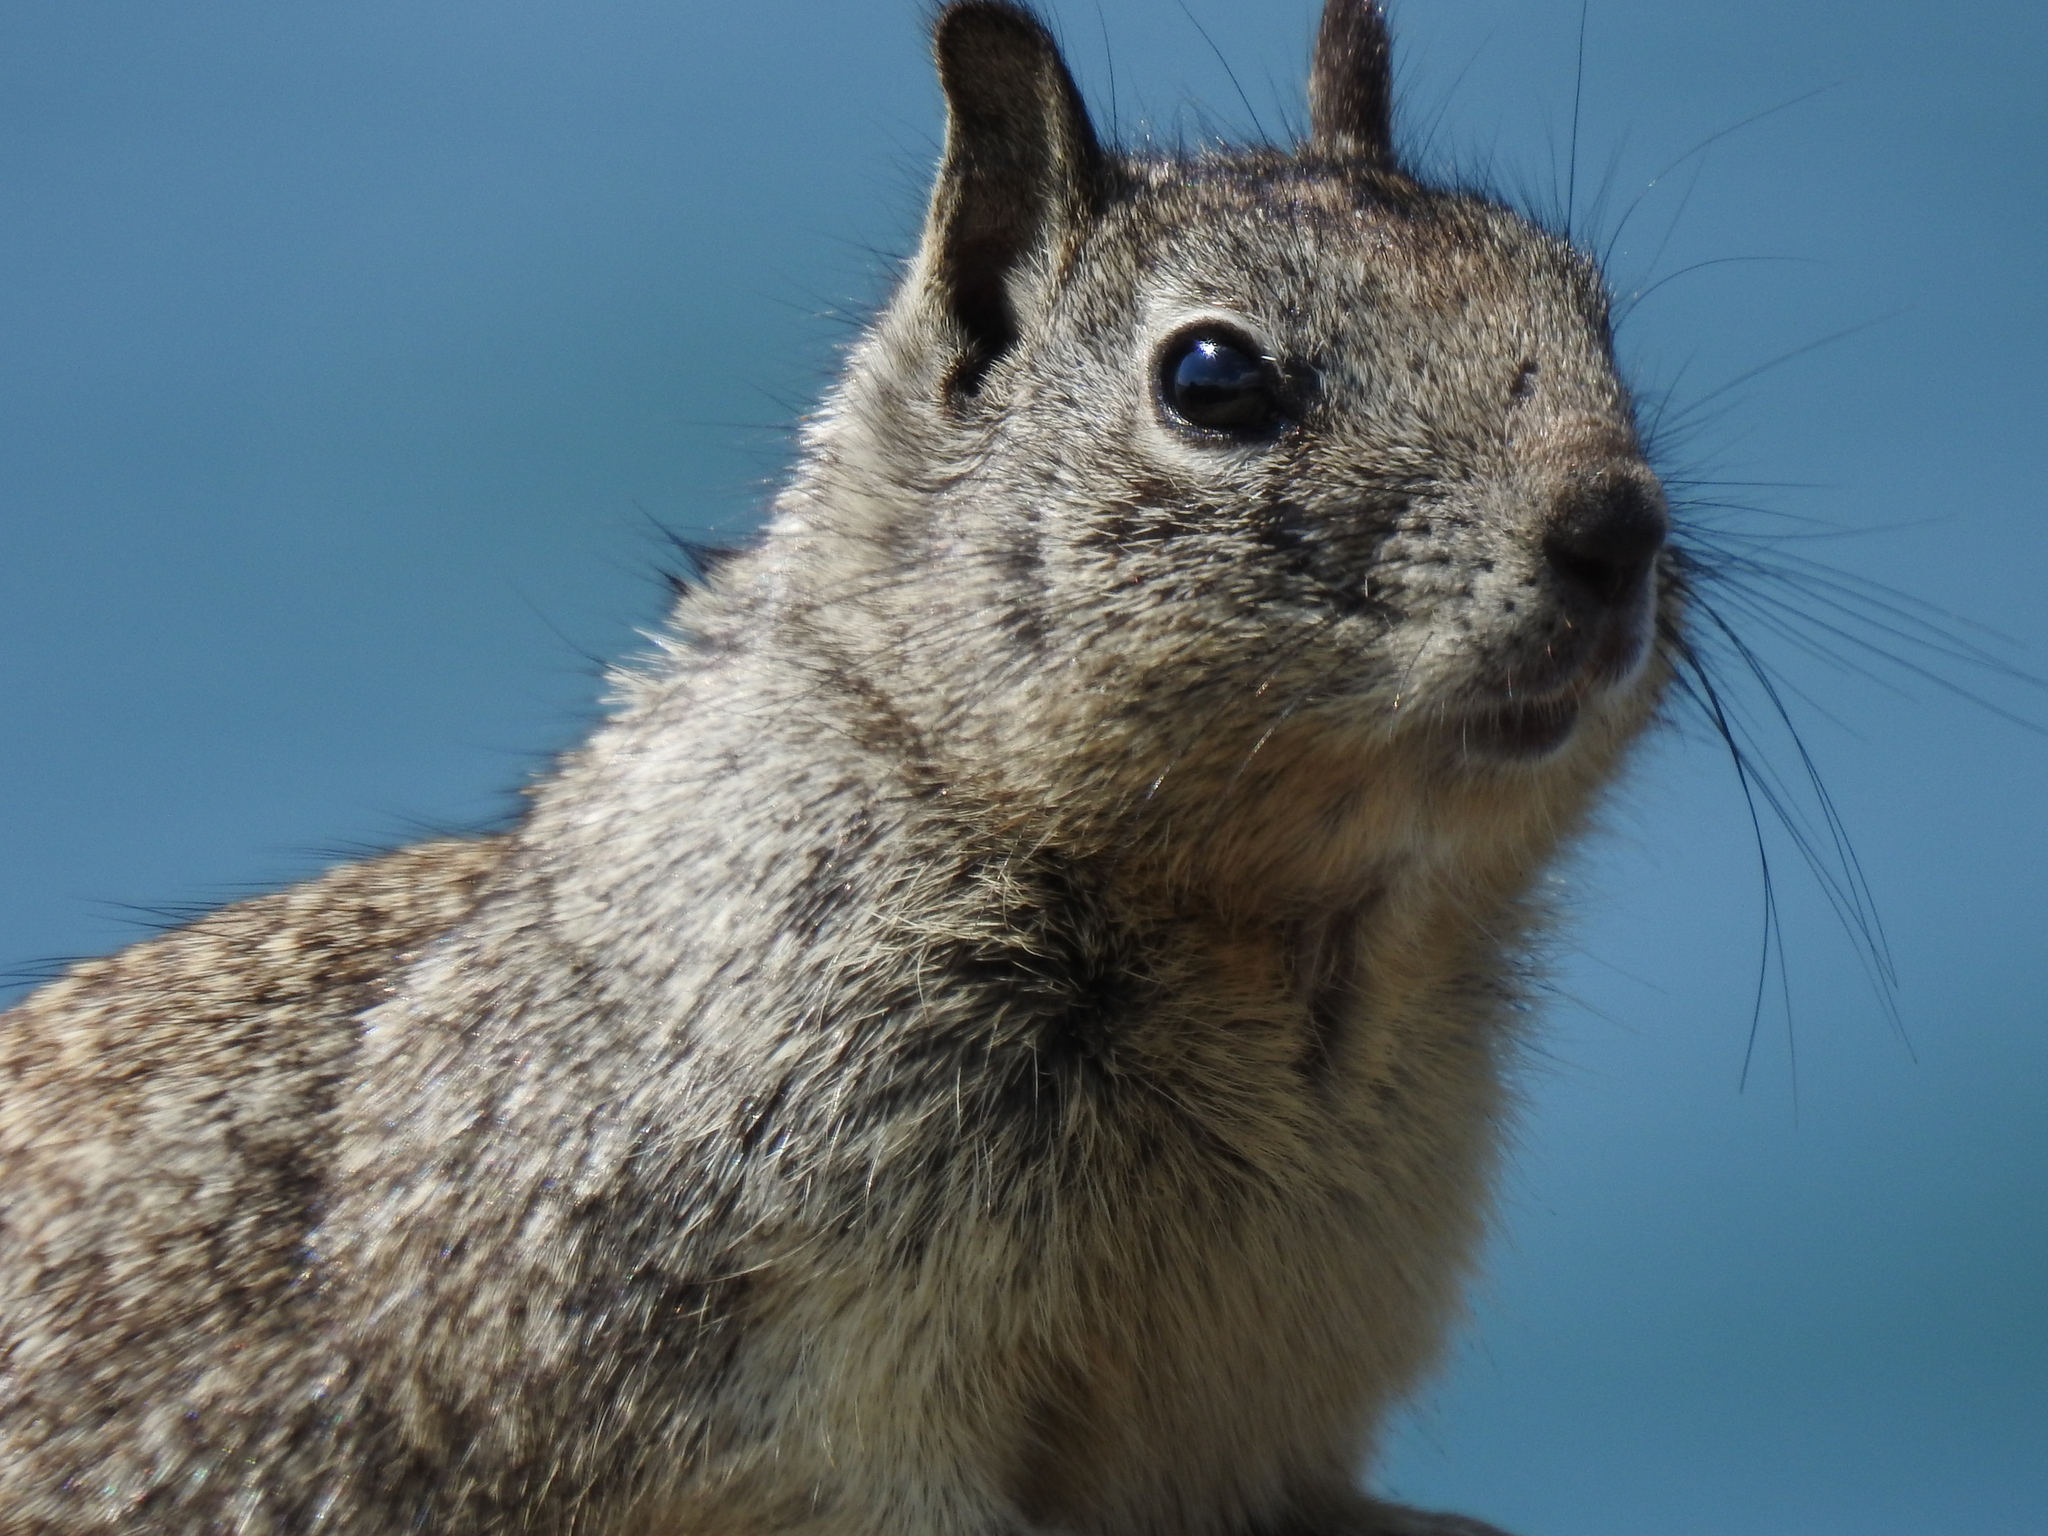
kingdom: Animalia
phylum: Chordata
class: Mammalia
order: Rodentia
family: Sciuridae
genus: Otospermophilus
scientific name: Otospermophilus beecheyi
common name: California ground squirrel
